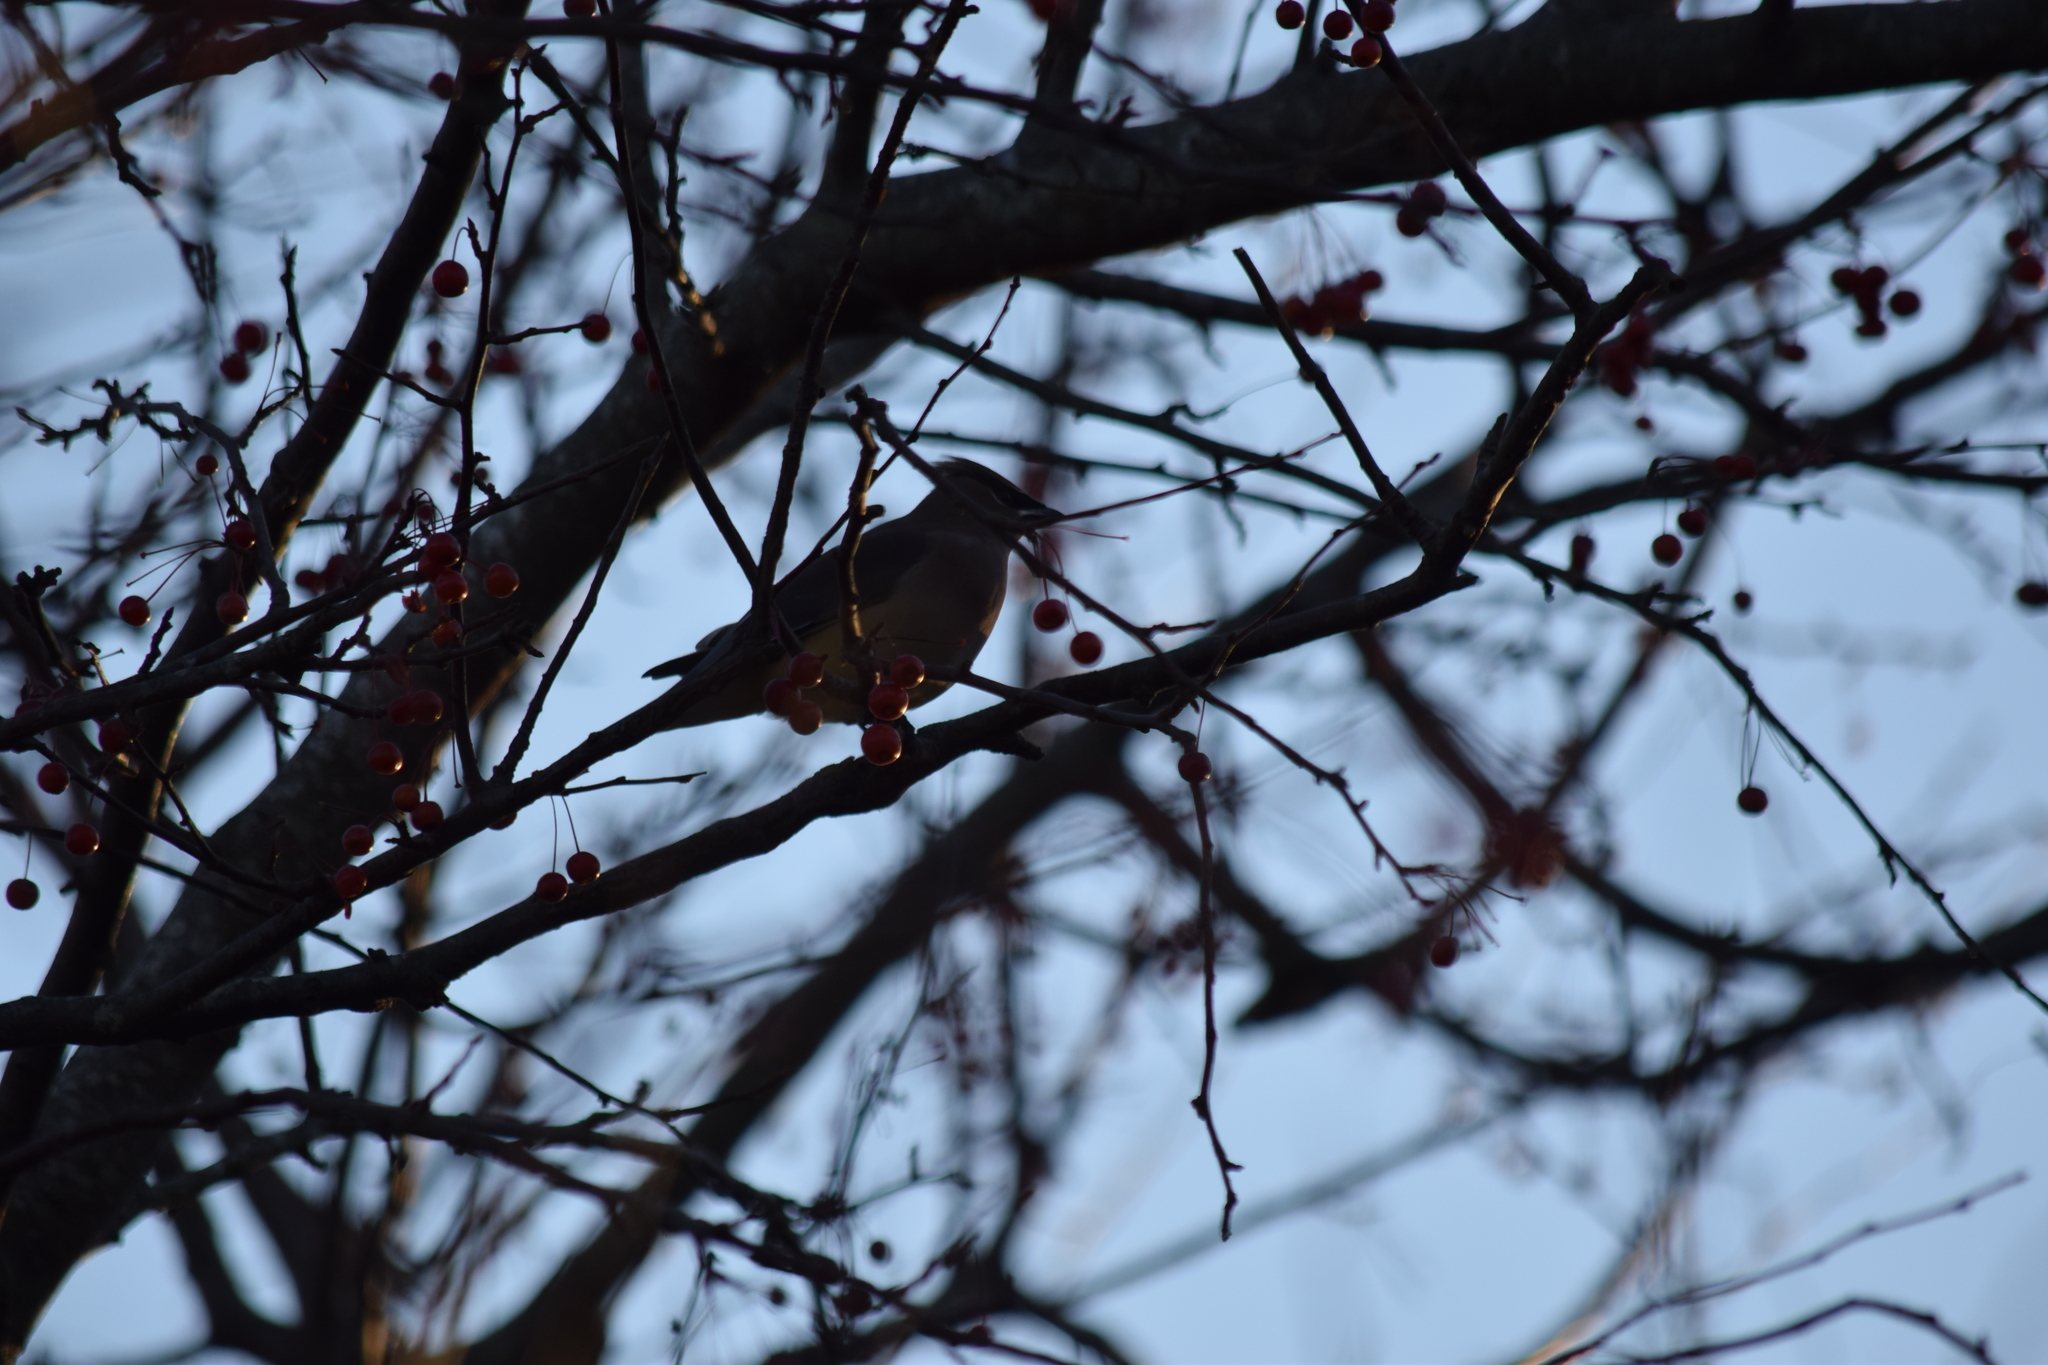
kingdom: Animalia
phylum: Chordata
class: Aves
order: Passeriformes
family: Bombycillidae
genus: Bombycilla
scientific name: Bombycilla cedrorum
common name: Cedar waxwing
